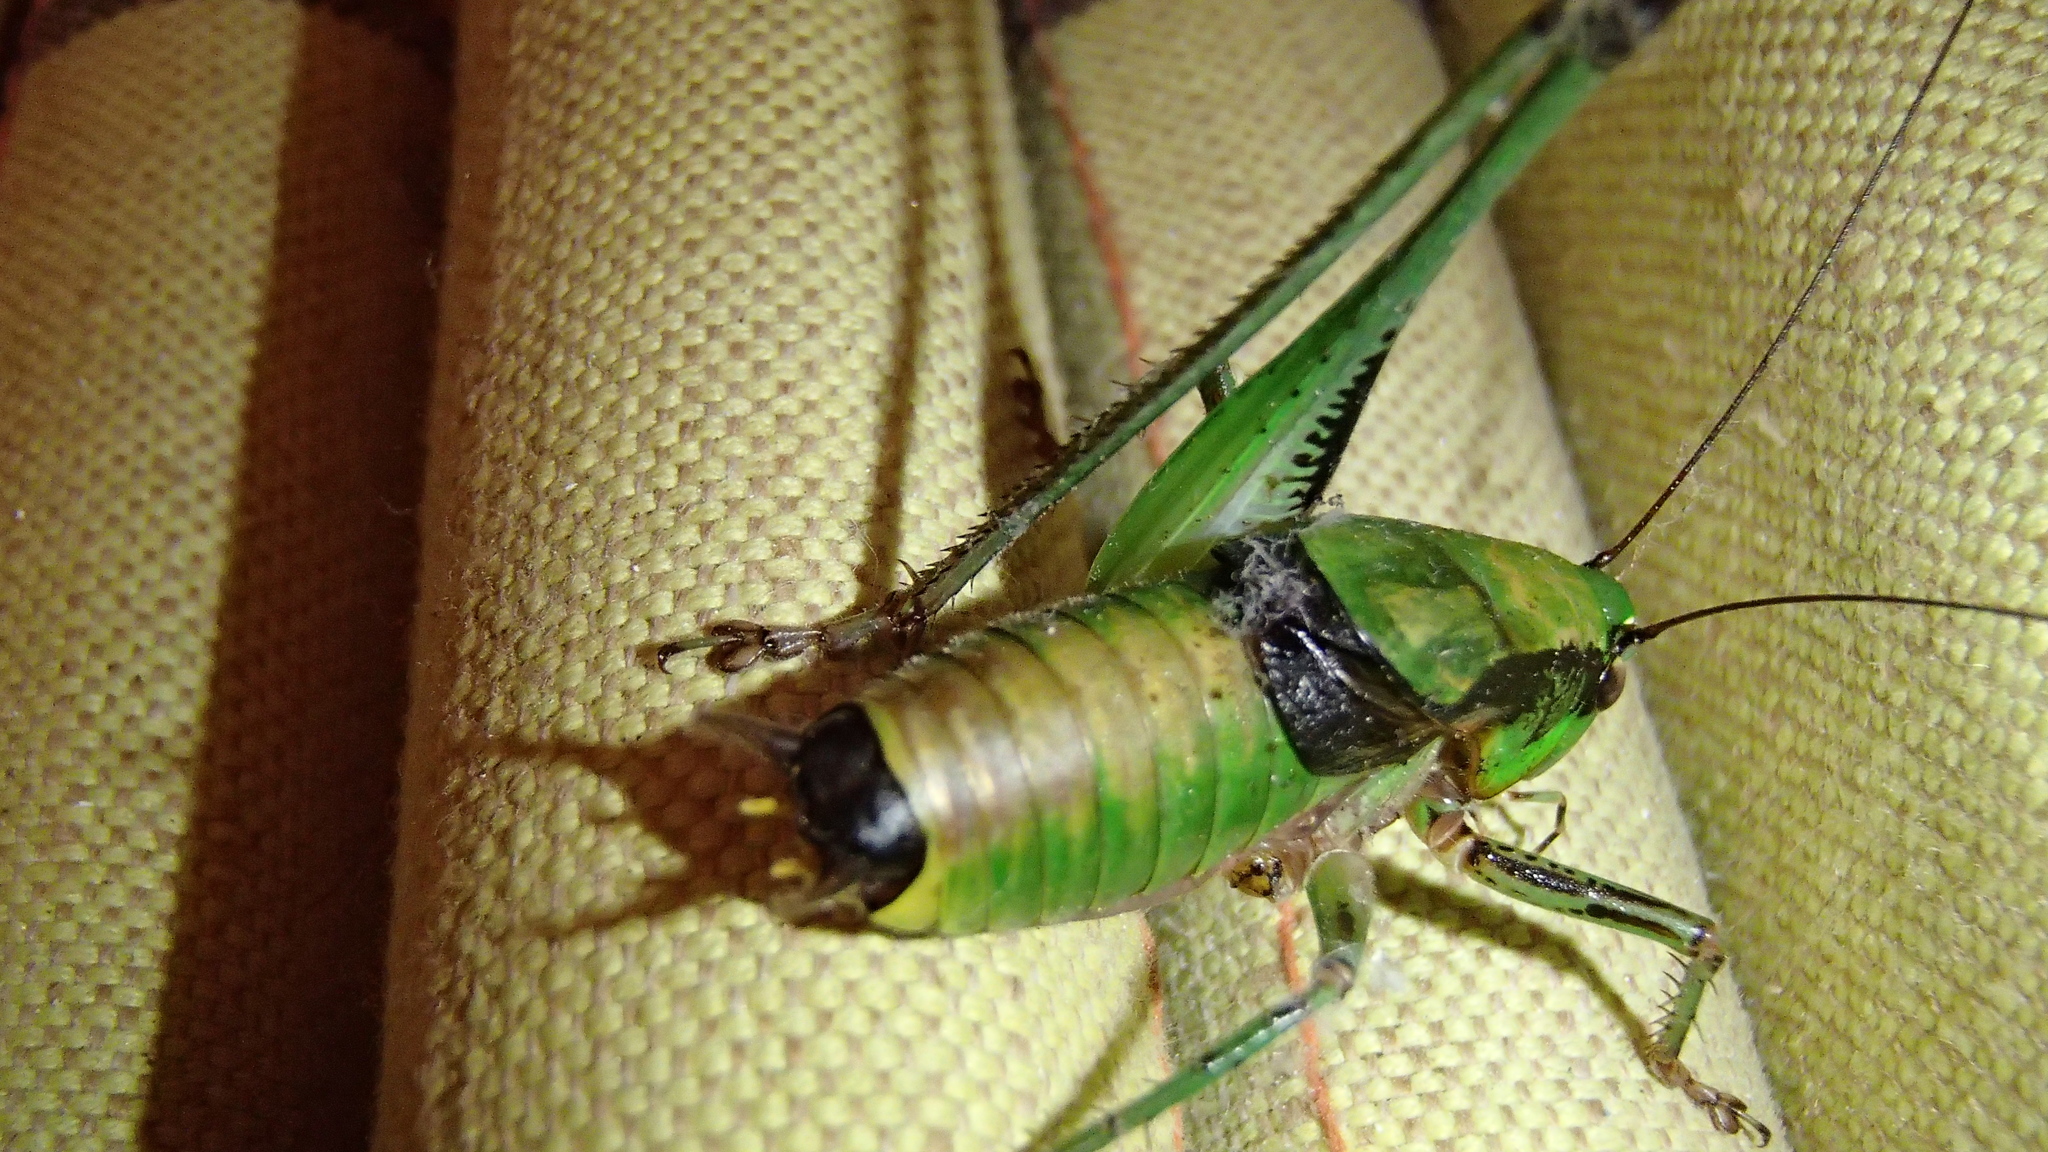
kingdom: Animalia
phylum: Arthropoda
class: Insecta
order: Orthoptera
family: Tettigoniidae
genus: Eupholidoptera
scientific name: Eupholidoptera schmidti
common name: Schmidt's marbled bush-cricket
